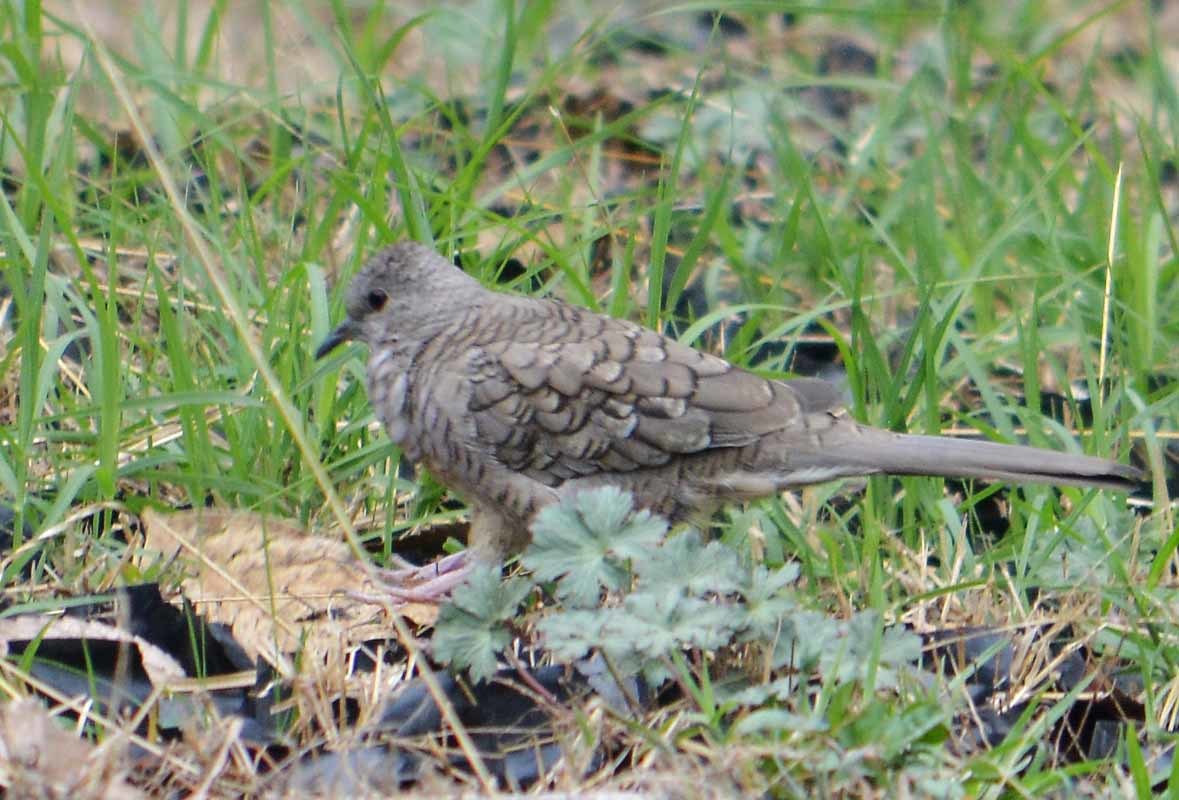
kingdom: Animalia
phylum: Chordata
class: Aves
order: Columbiformes
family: Columbidae
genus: Columbina
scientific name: Columbina inca
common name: Inca dove
